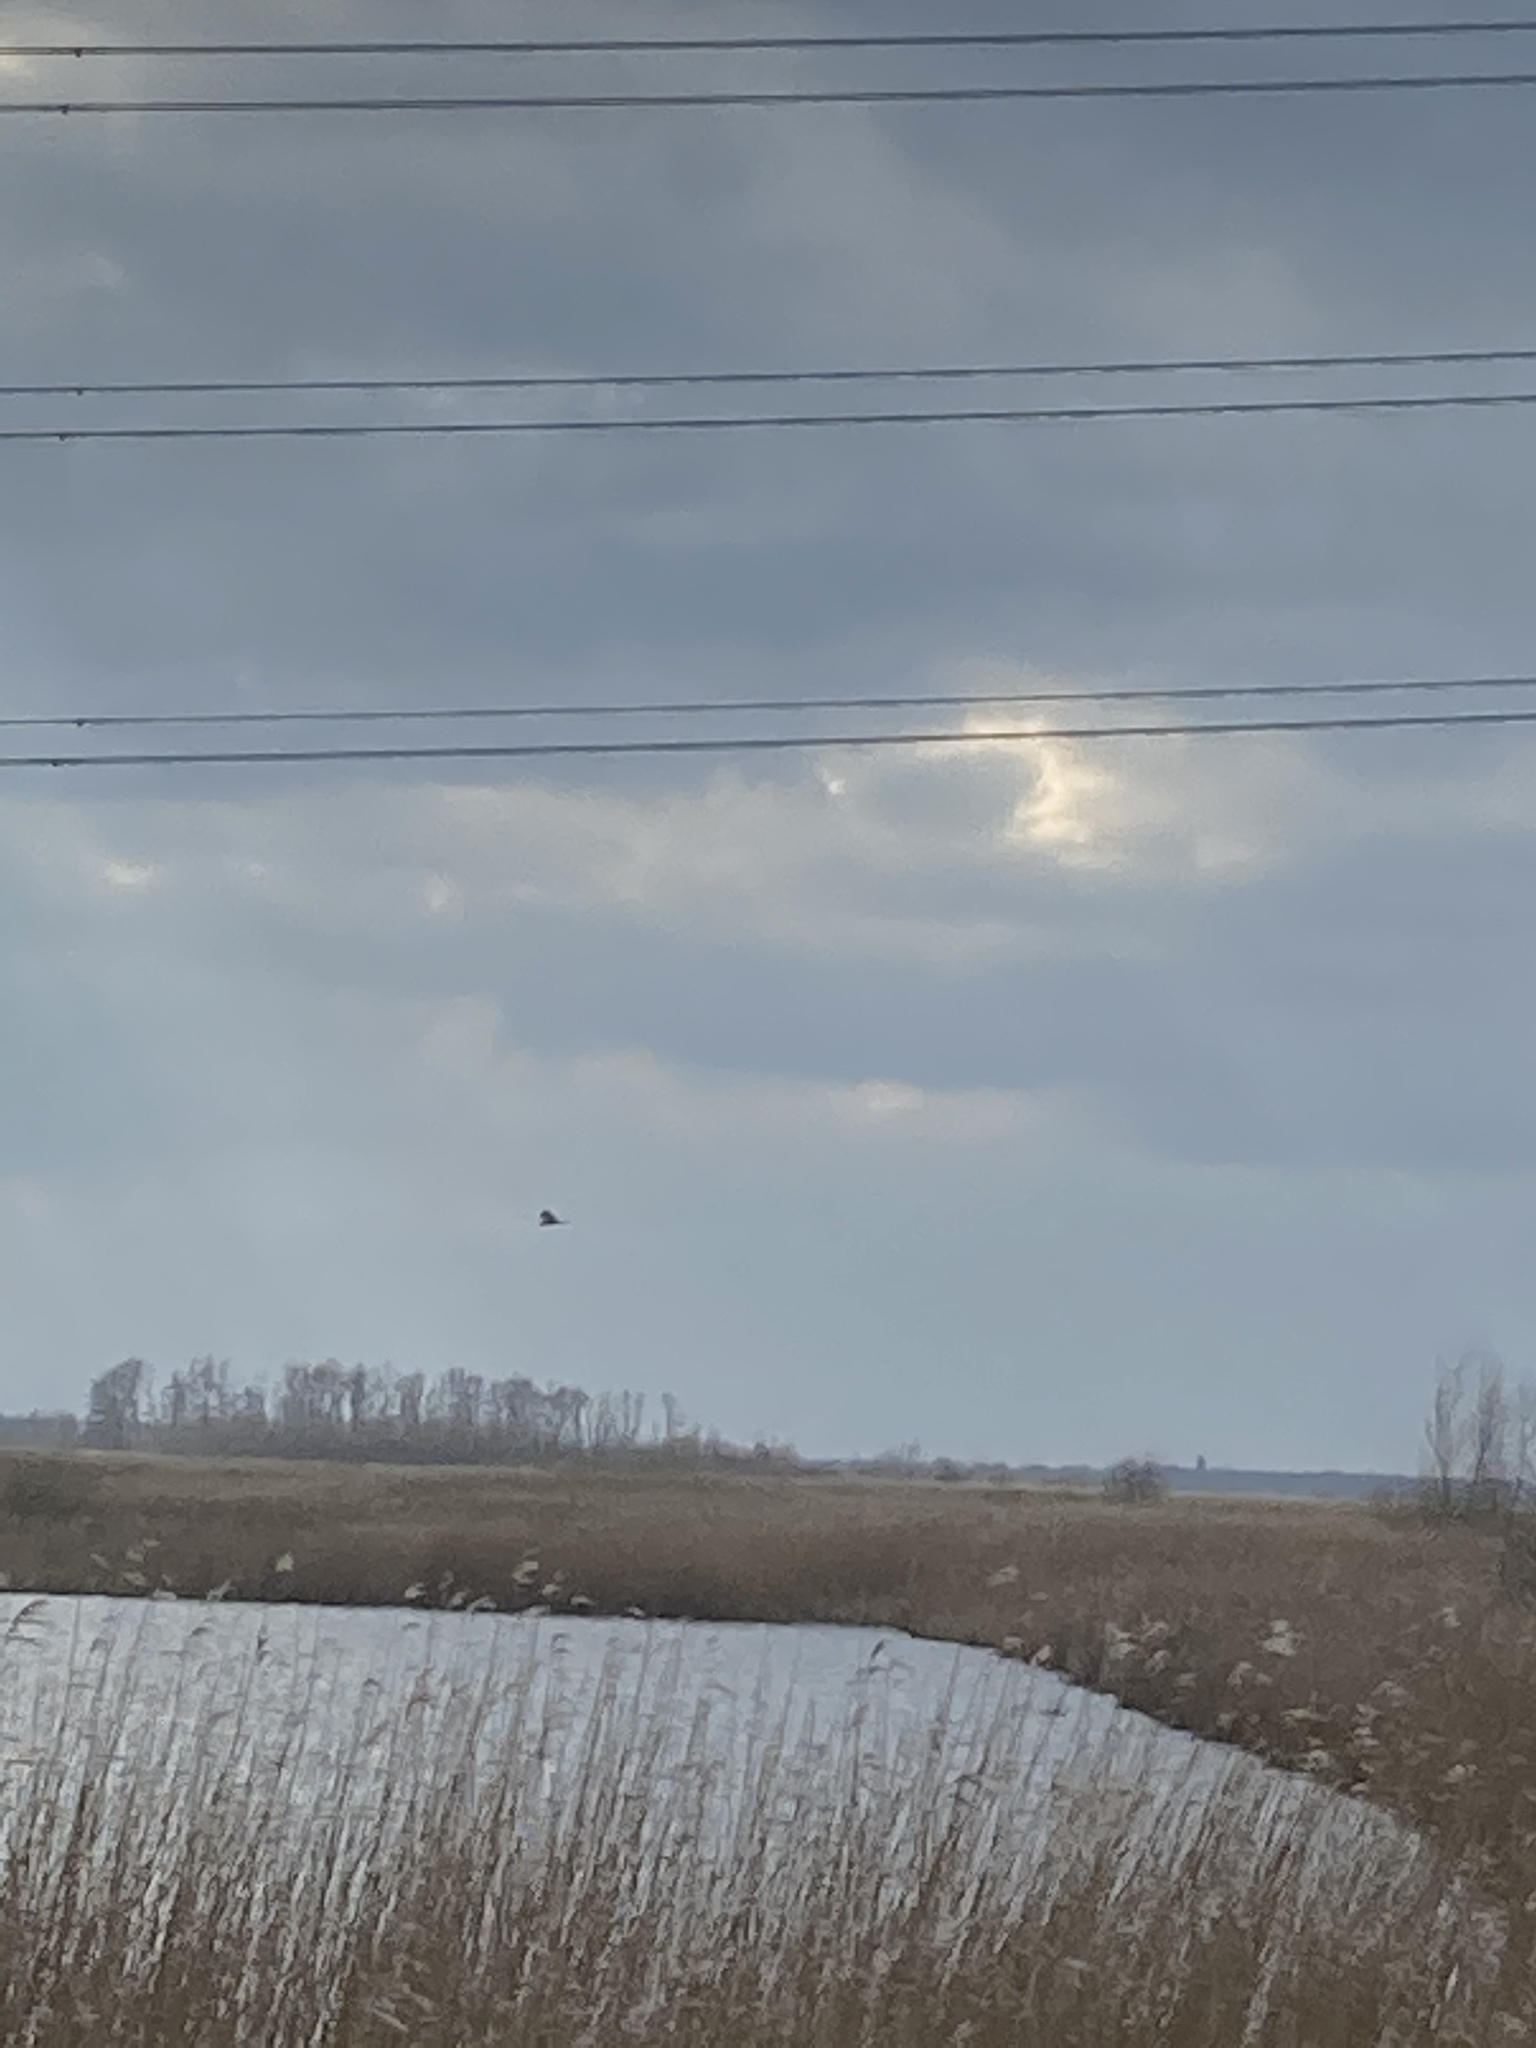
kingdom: Animalia
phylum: Chordata
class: Aves
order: Accipitriformes
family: Accipitridae
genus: Circus
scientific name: Circus aeruginosus
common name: Western marsh harrier
